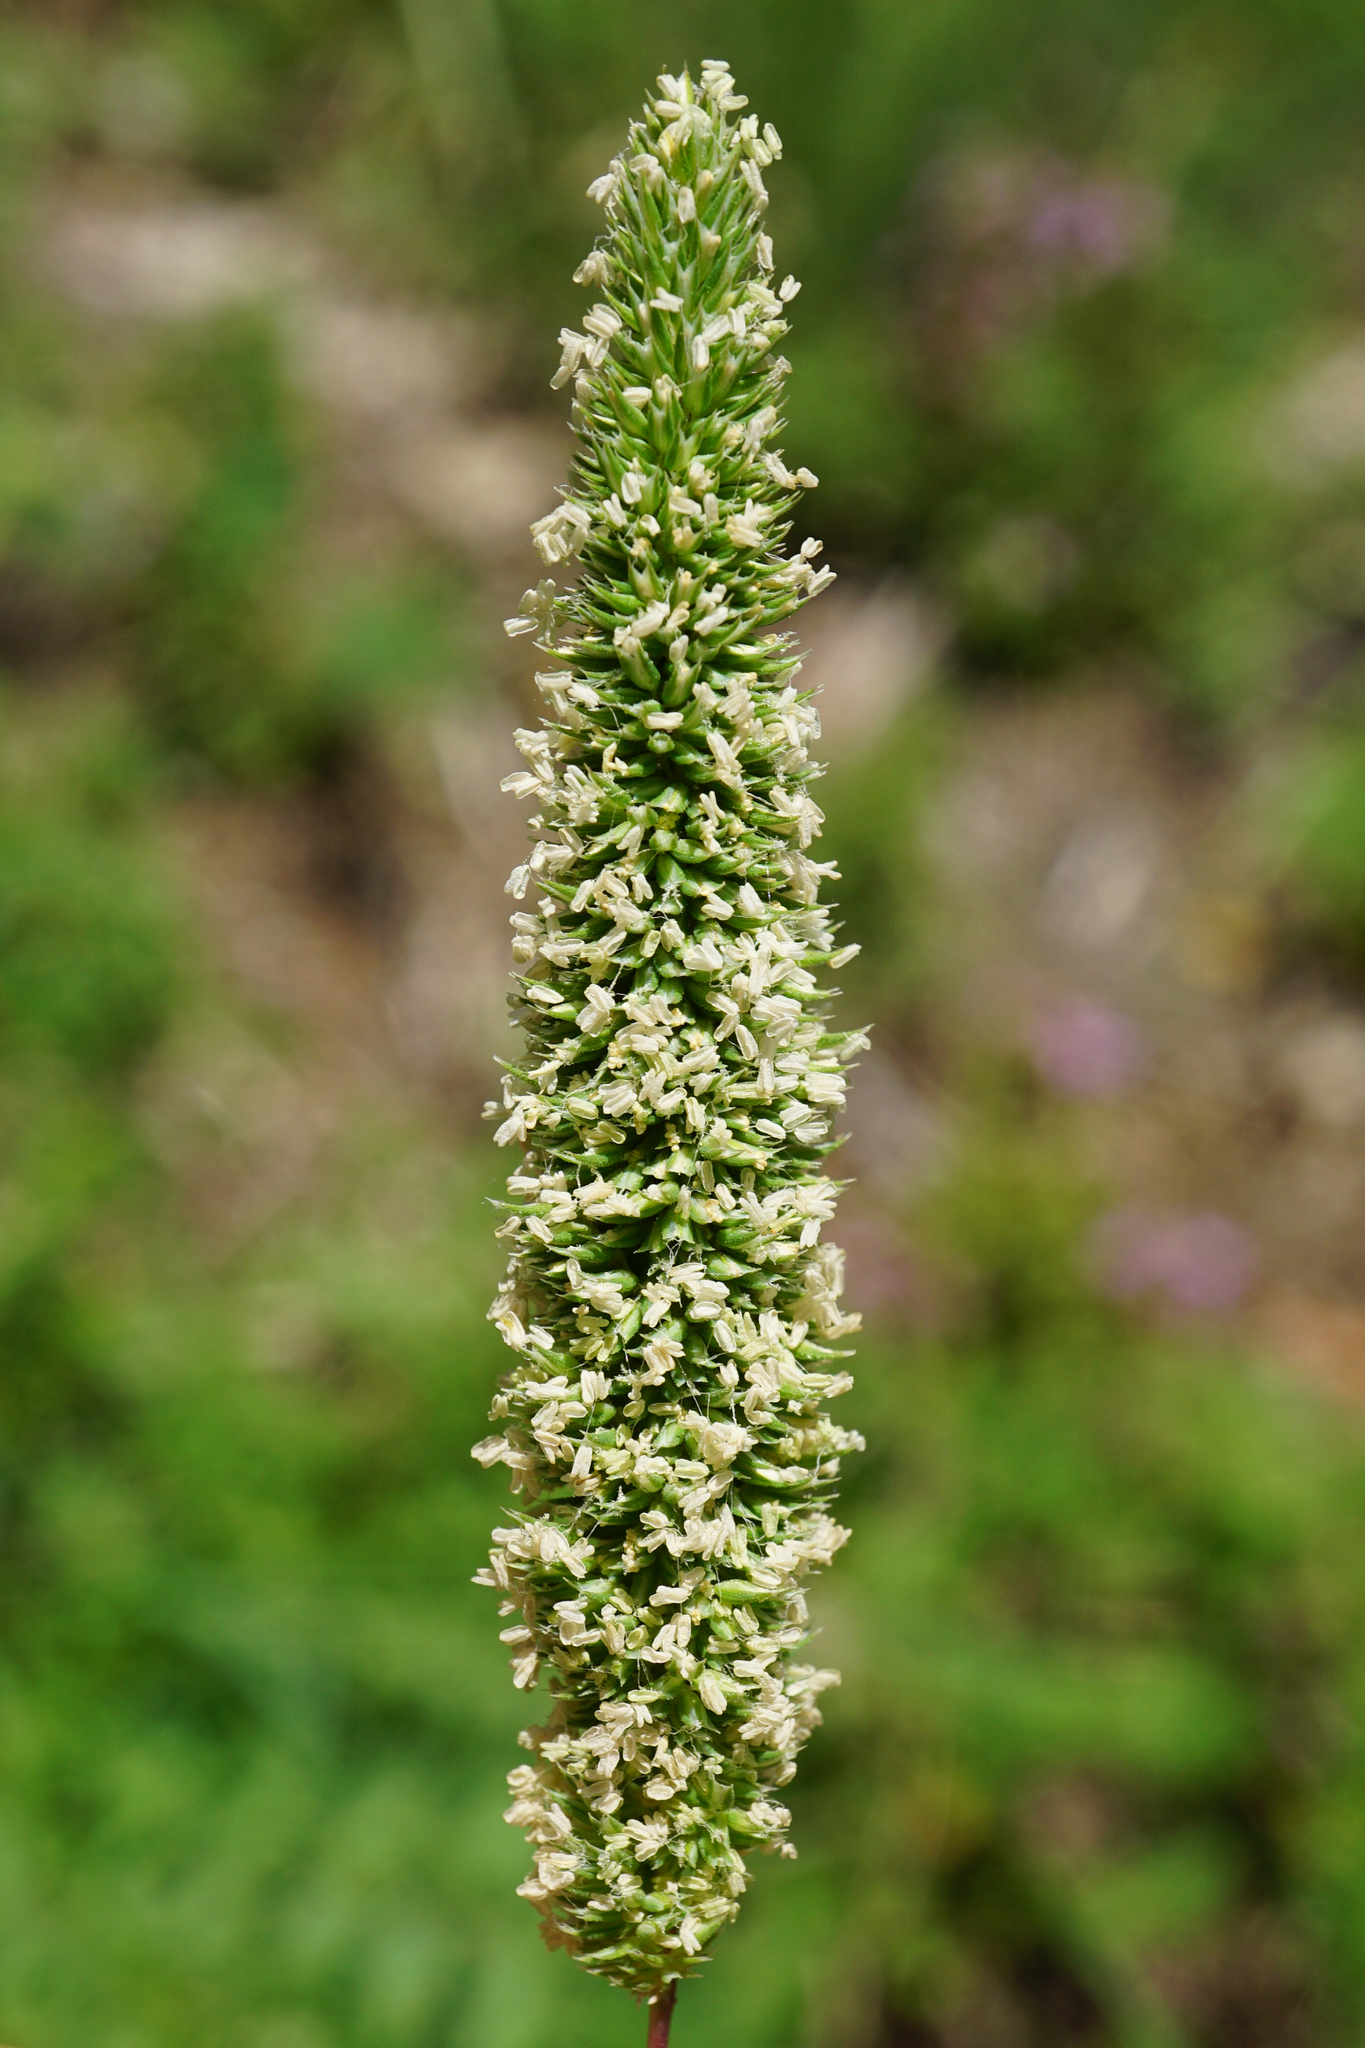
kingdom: Plantae
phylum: Tracheophyta
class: Liliopsida
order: Poales
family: Poaceae
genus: Phleum
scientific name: Phleum phleoides
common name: Purple-stem cat's-tail
